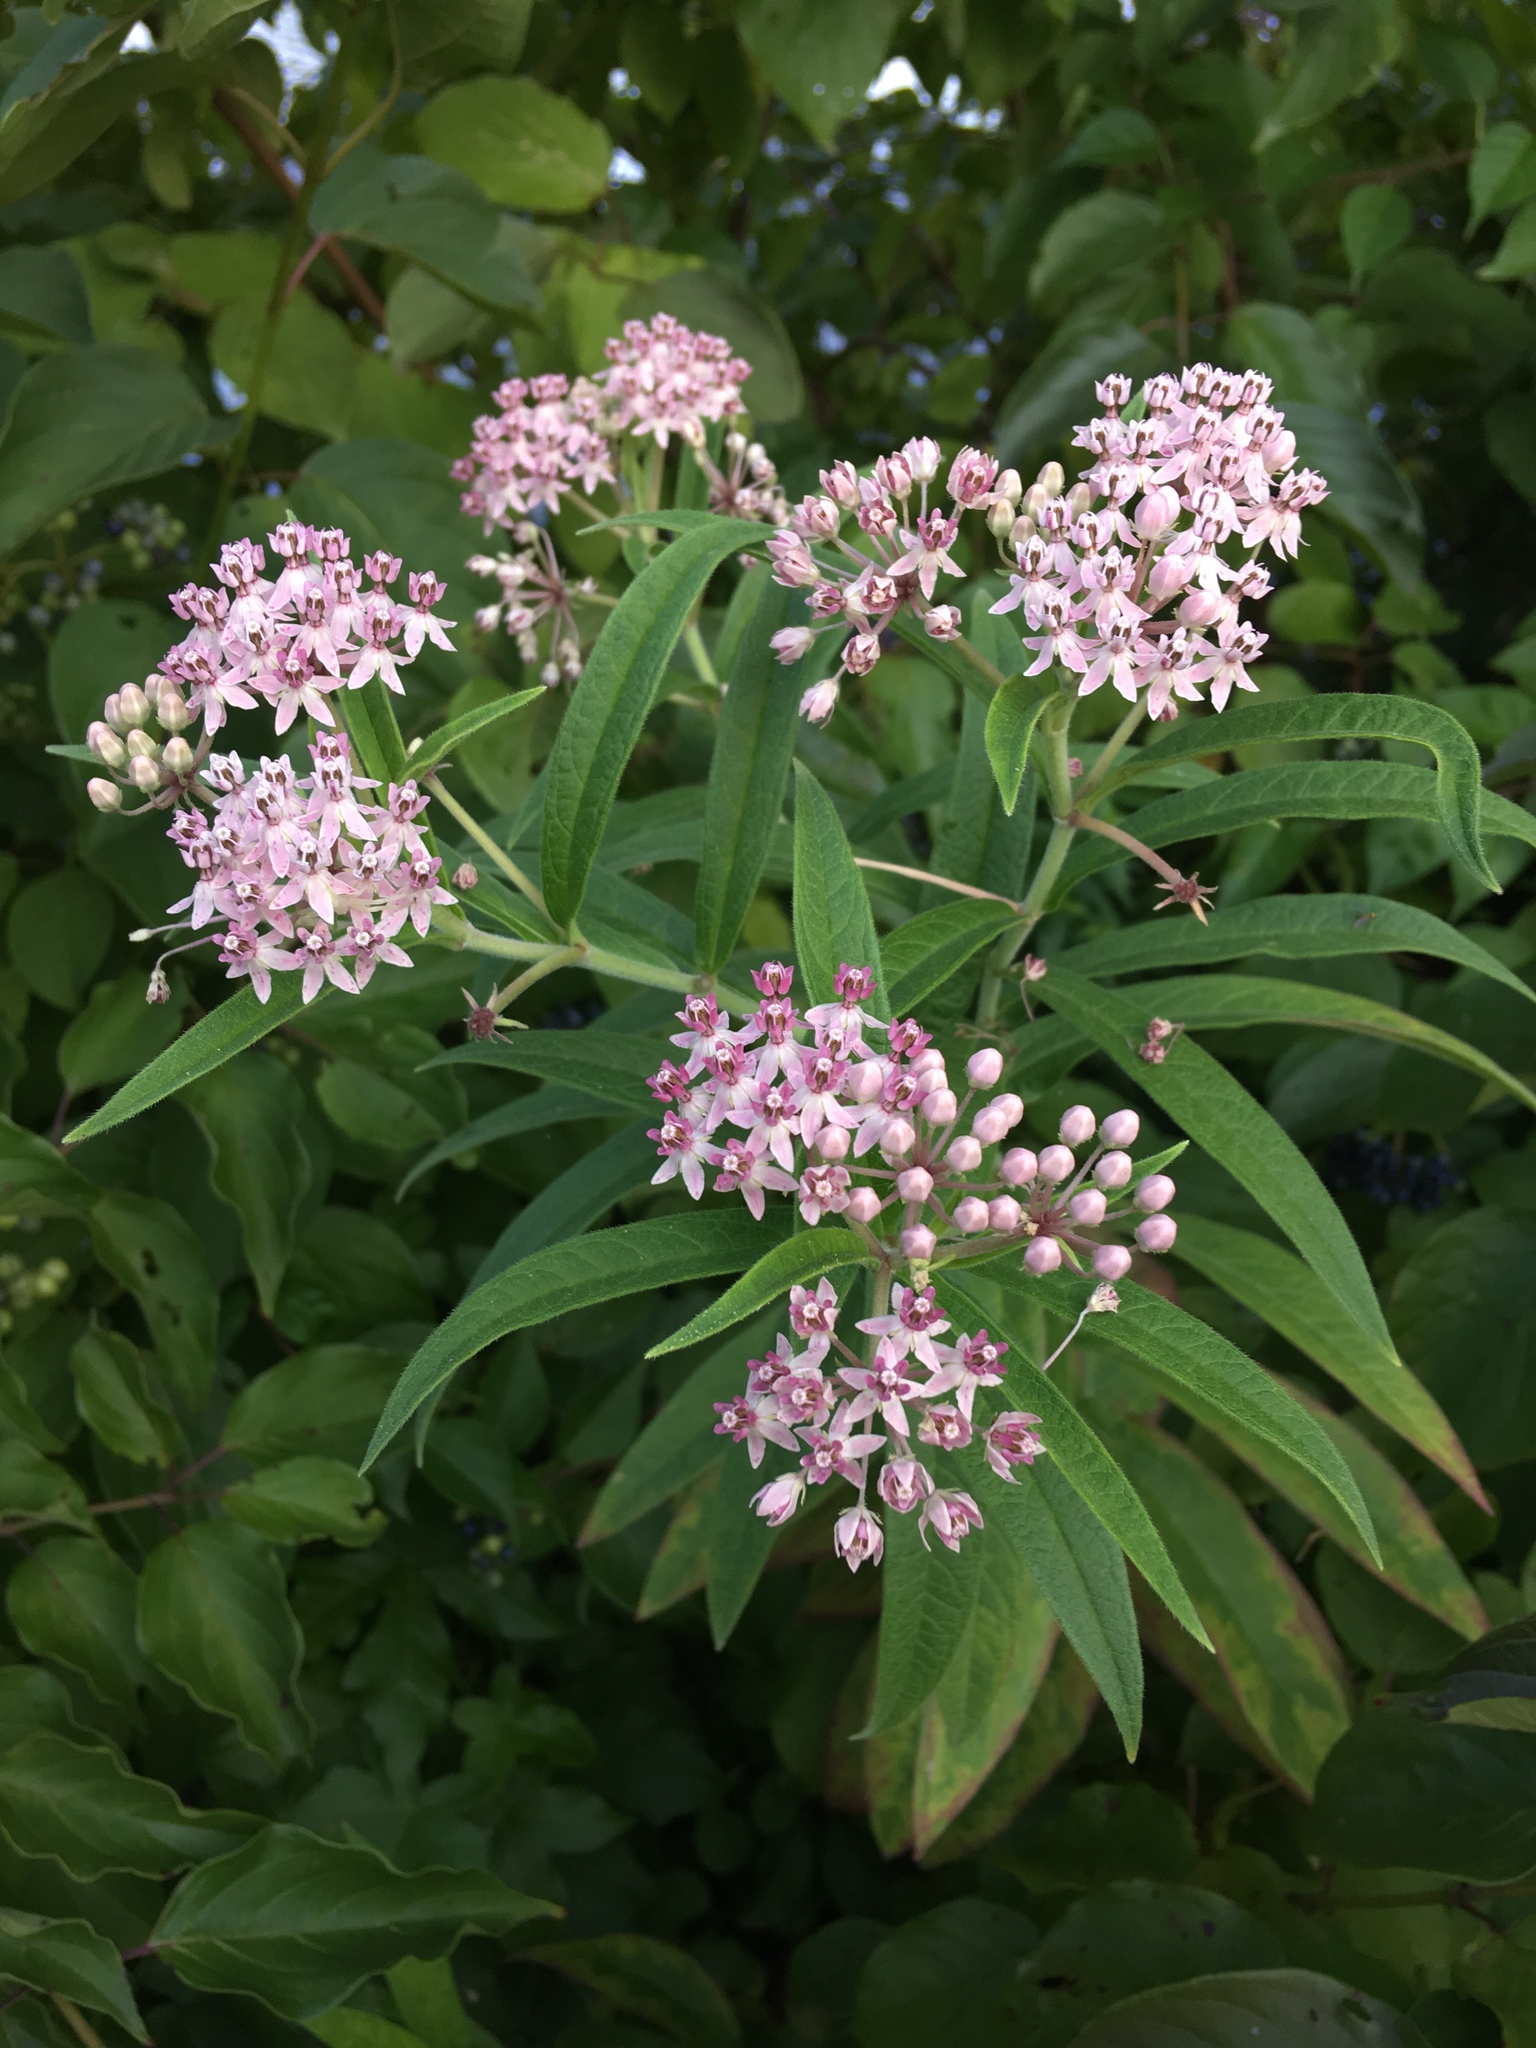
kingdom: Plantae
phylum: Tracheophyta
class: Magnoliopsida
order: Gentianales
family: Apocynaceae
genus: Asclepias
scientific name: Asclepias incarnata
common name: Swamp milkweed
